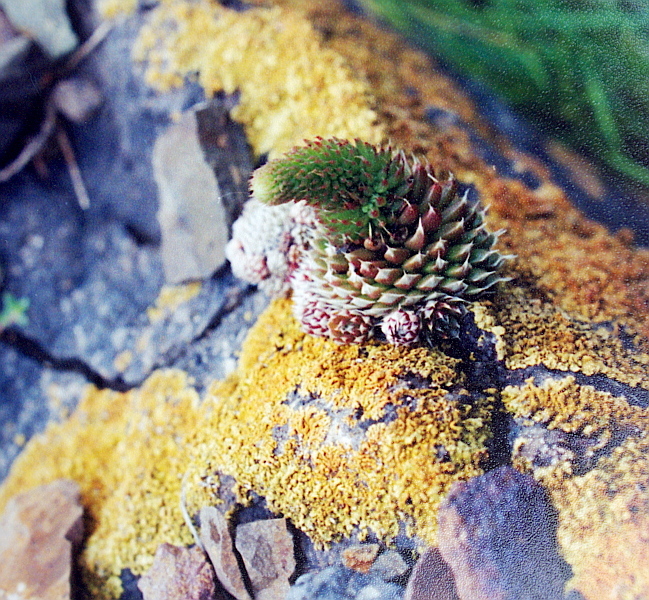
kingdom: Plantae
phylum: Tracheophyta
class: Magnoliopsida
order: Saxifragales
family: Crassulaceae
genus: Orostachys
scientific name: Orostachys spinosa
